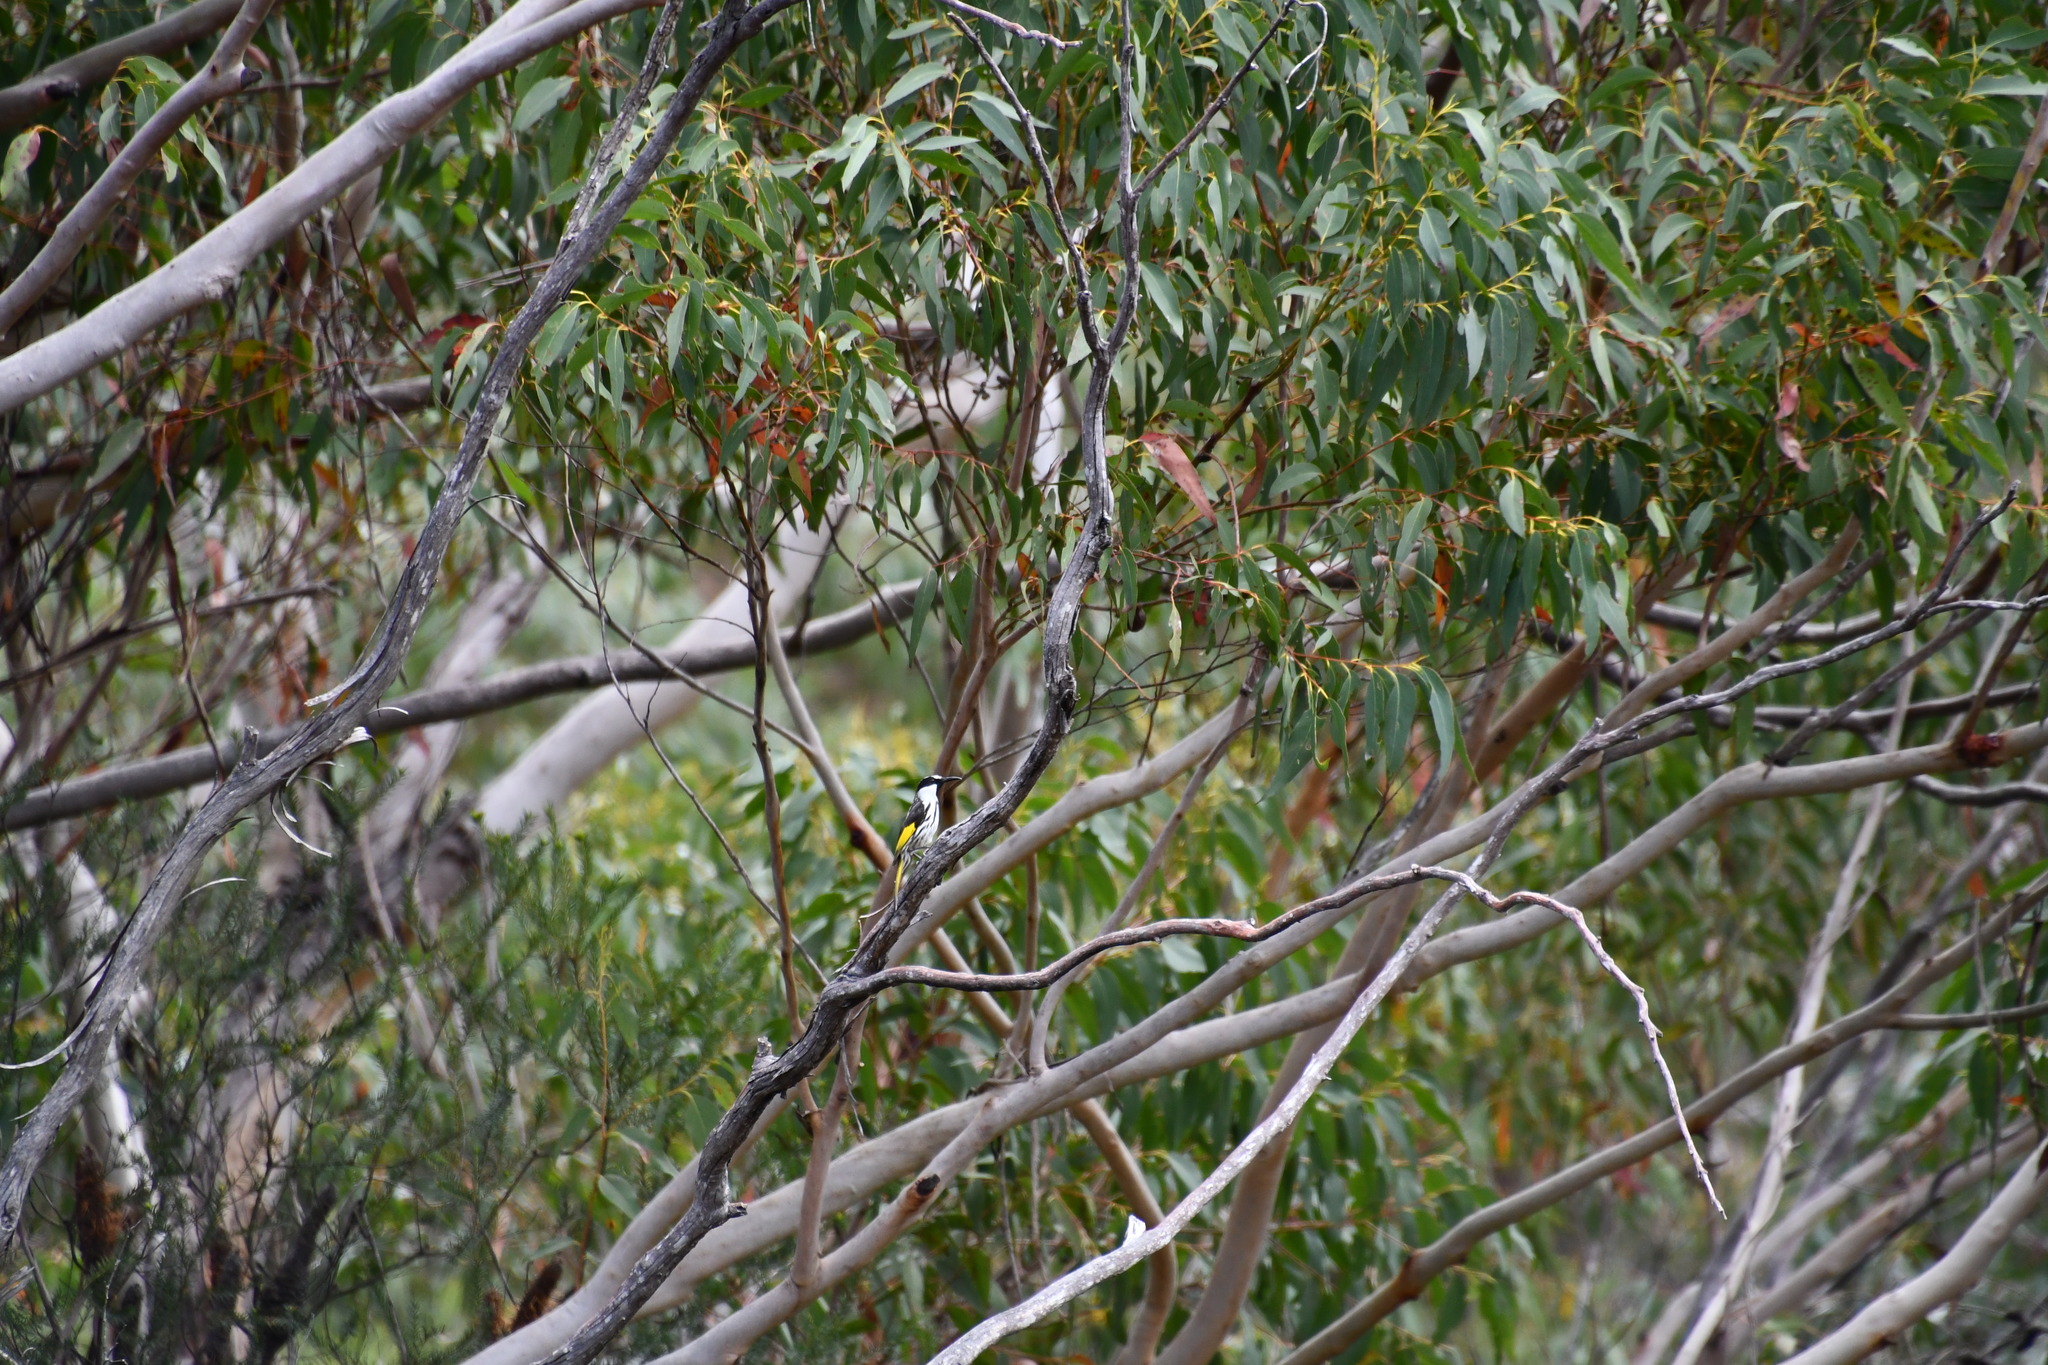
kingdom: Animalia
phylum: Chordata
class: Aves
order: Passeriformes
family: Meliphagidae
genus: Phylidonyris
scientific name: Phylidonyris niger
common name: White-cheeked honeyeater
